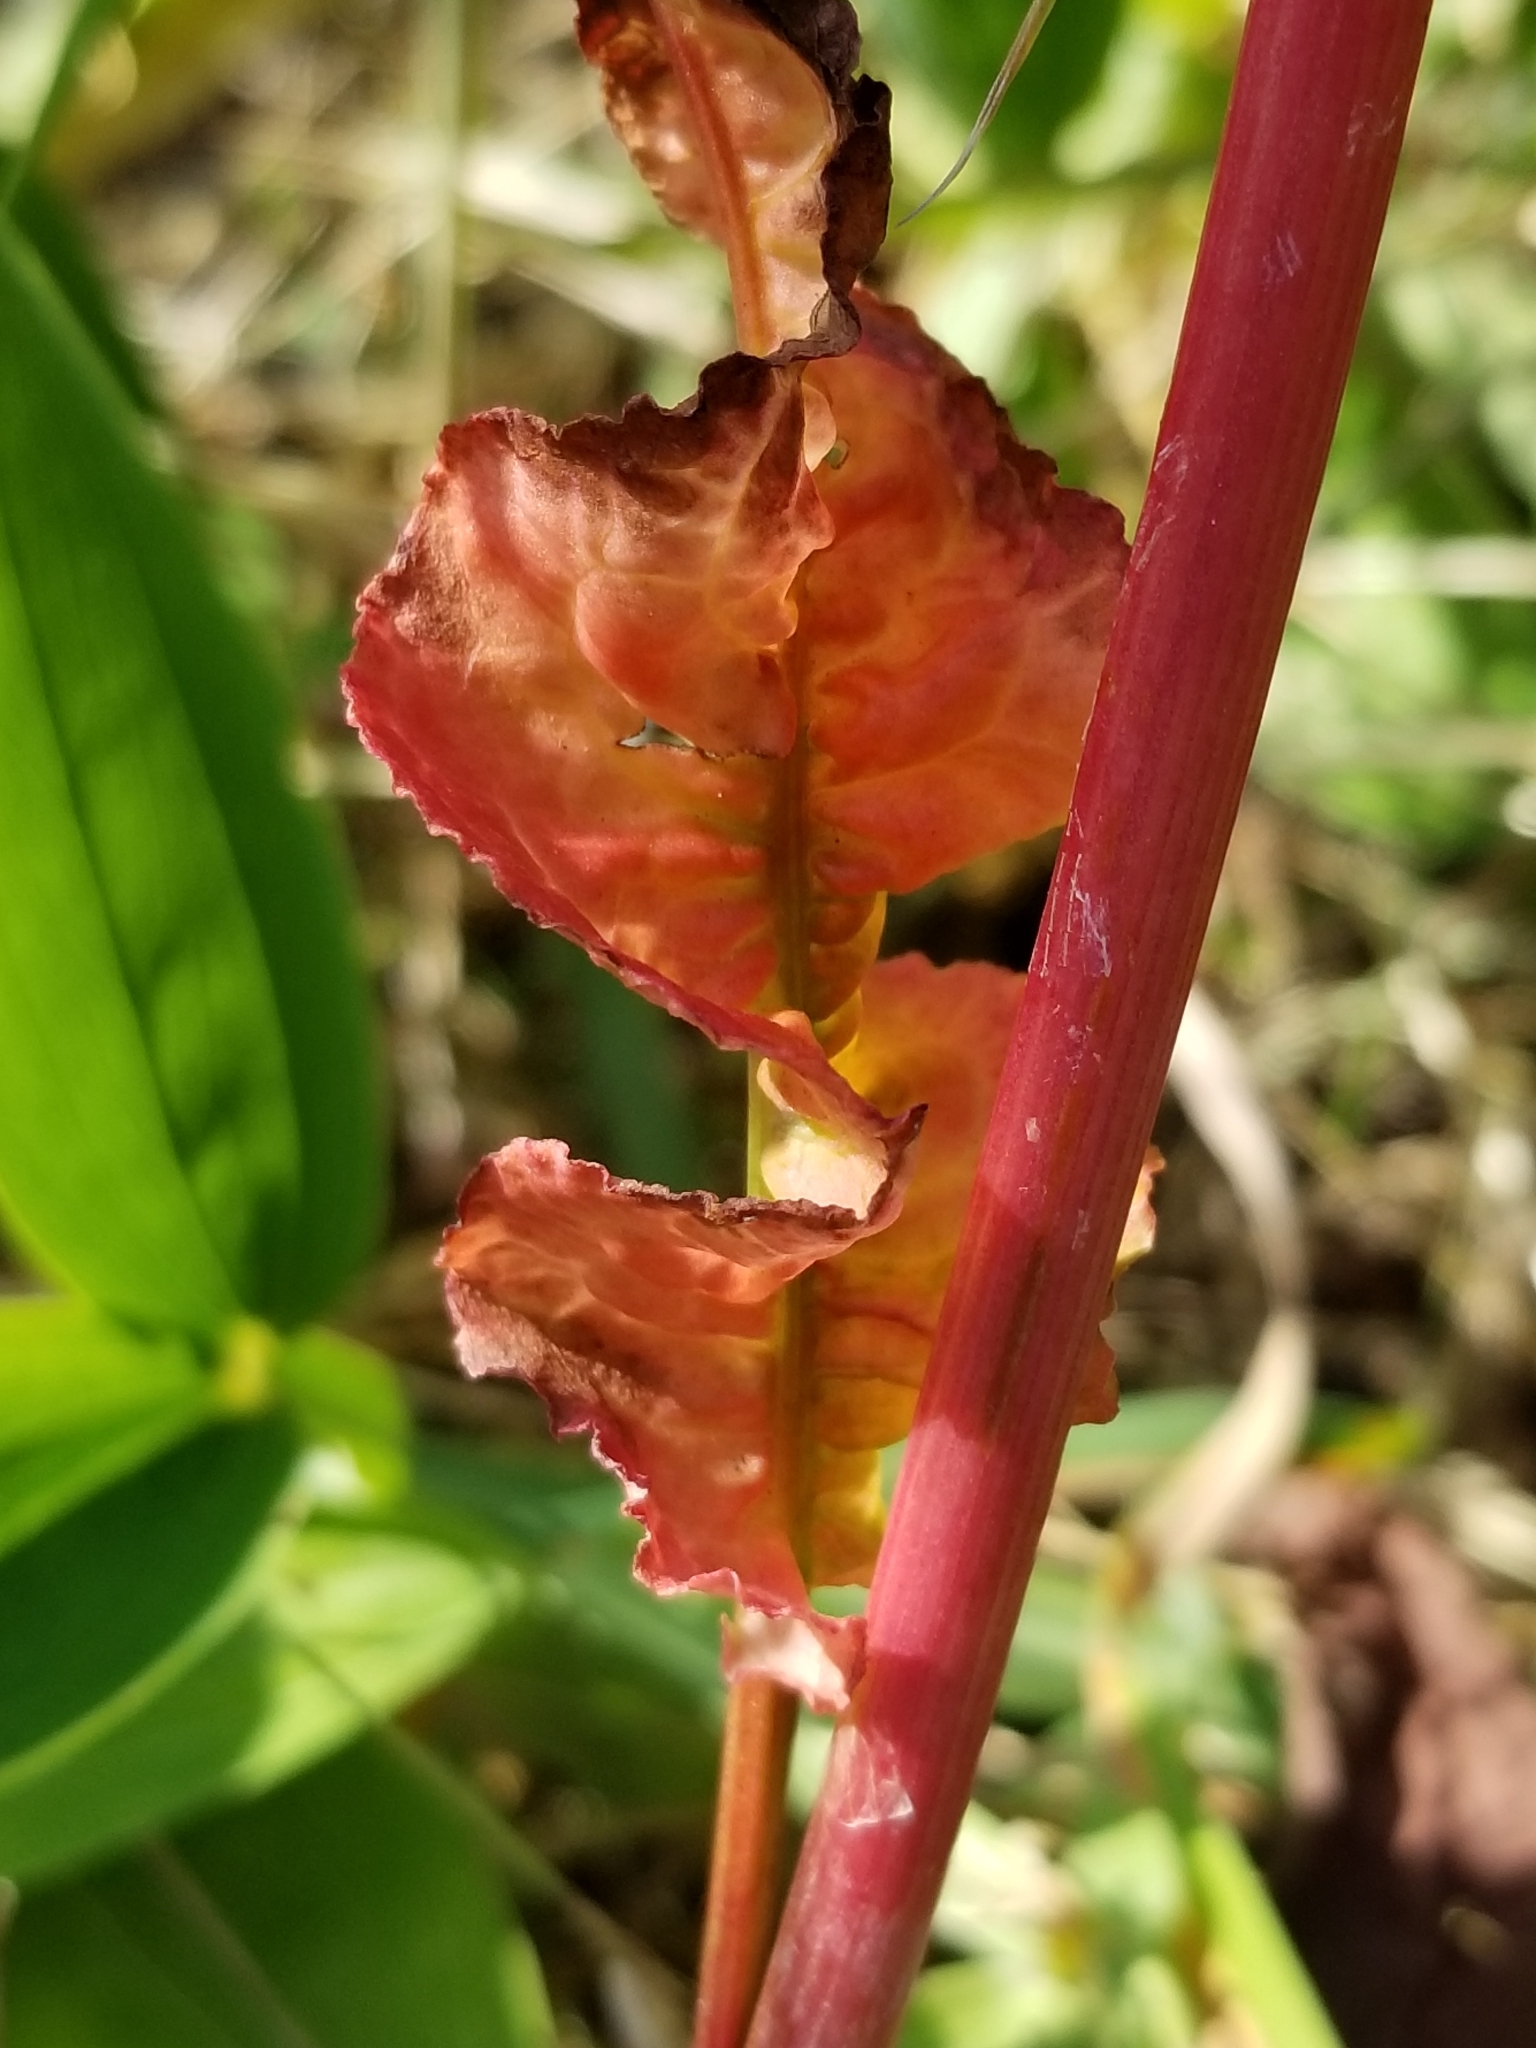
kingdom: Plantae
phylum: Tracheophyta
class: Magnoliopsida
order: Caryophyllales
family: Polygonaceae
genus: Rumex
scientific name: Rumex crispus
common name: Curled dock
